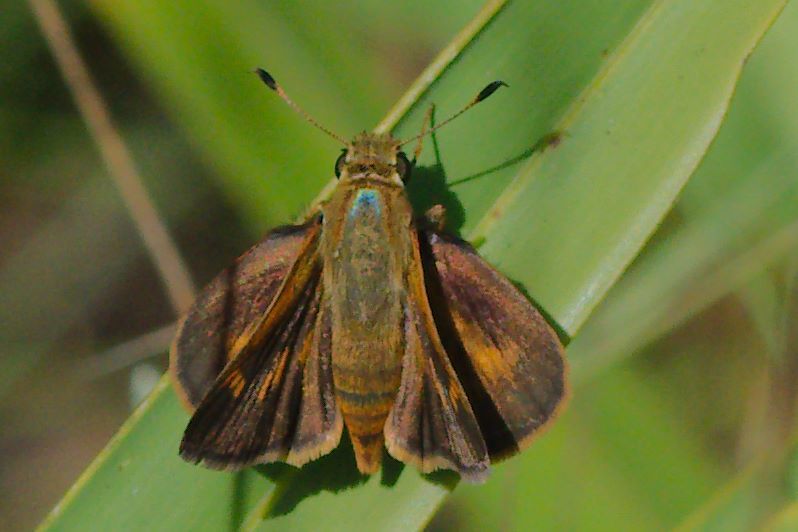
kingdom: Animalia
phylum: Arthropoda
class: Insecta
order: Lepidoptera
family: Hesperiidae
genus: Polites
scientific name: Polites otho
